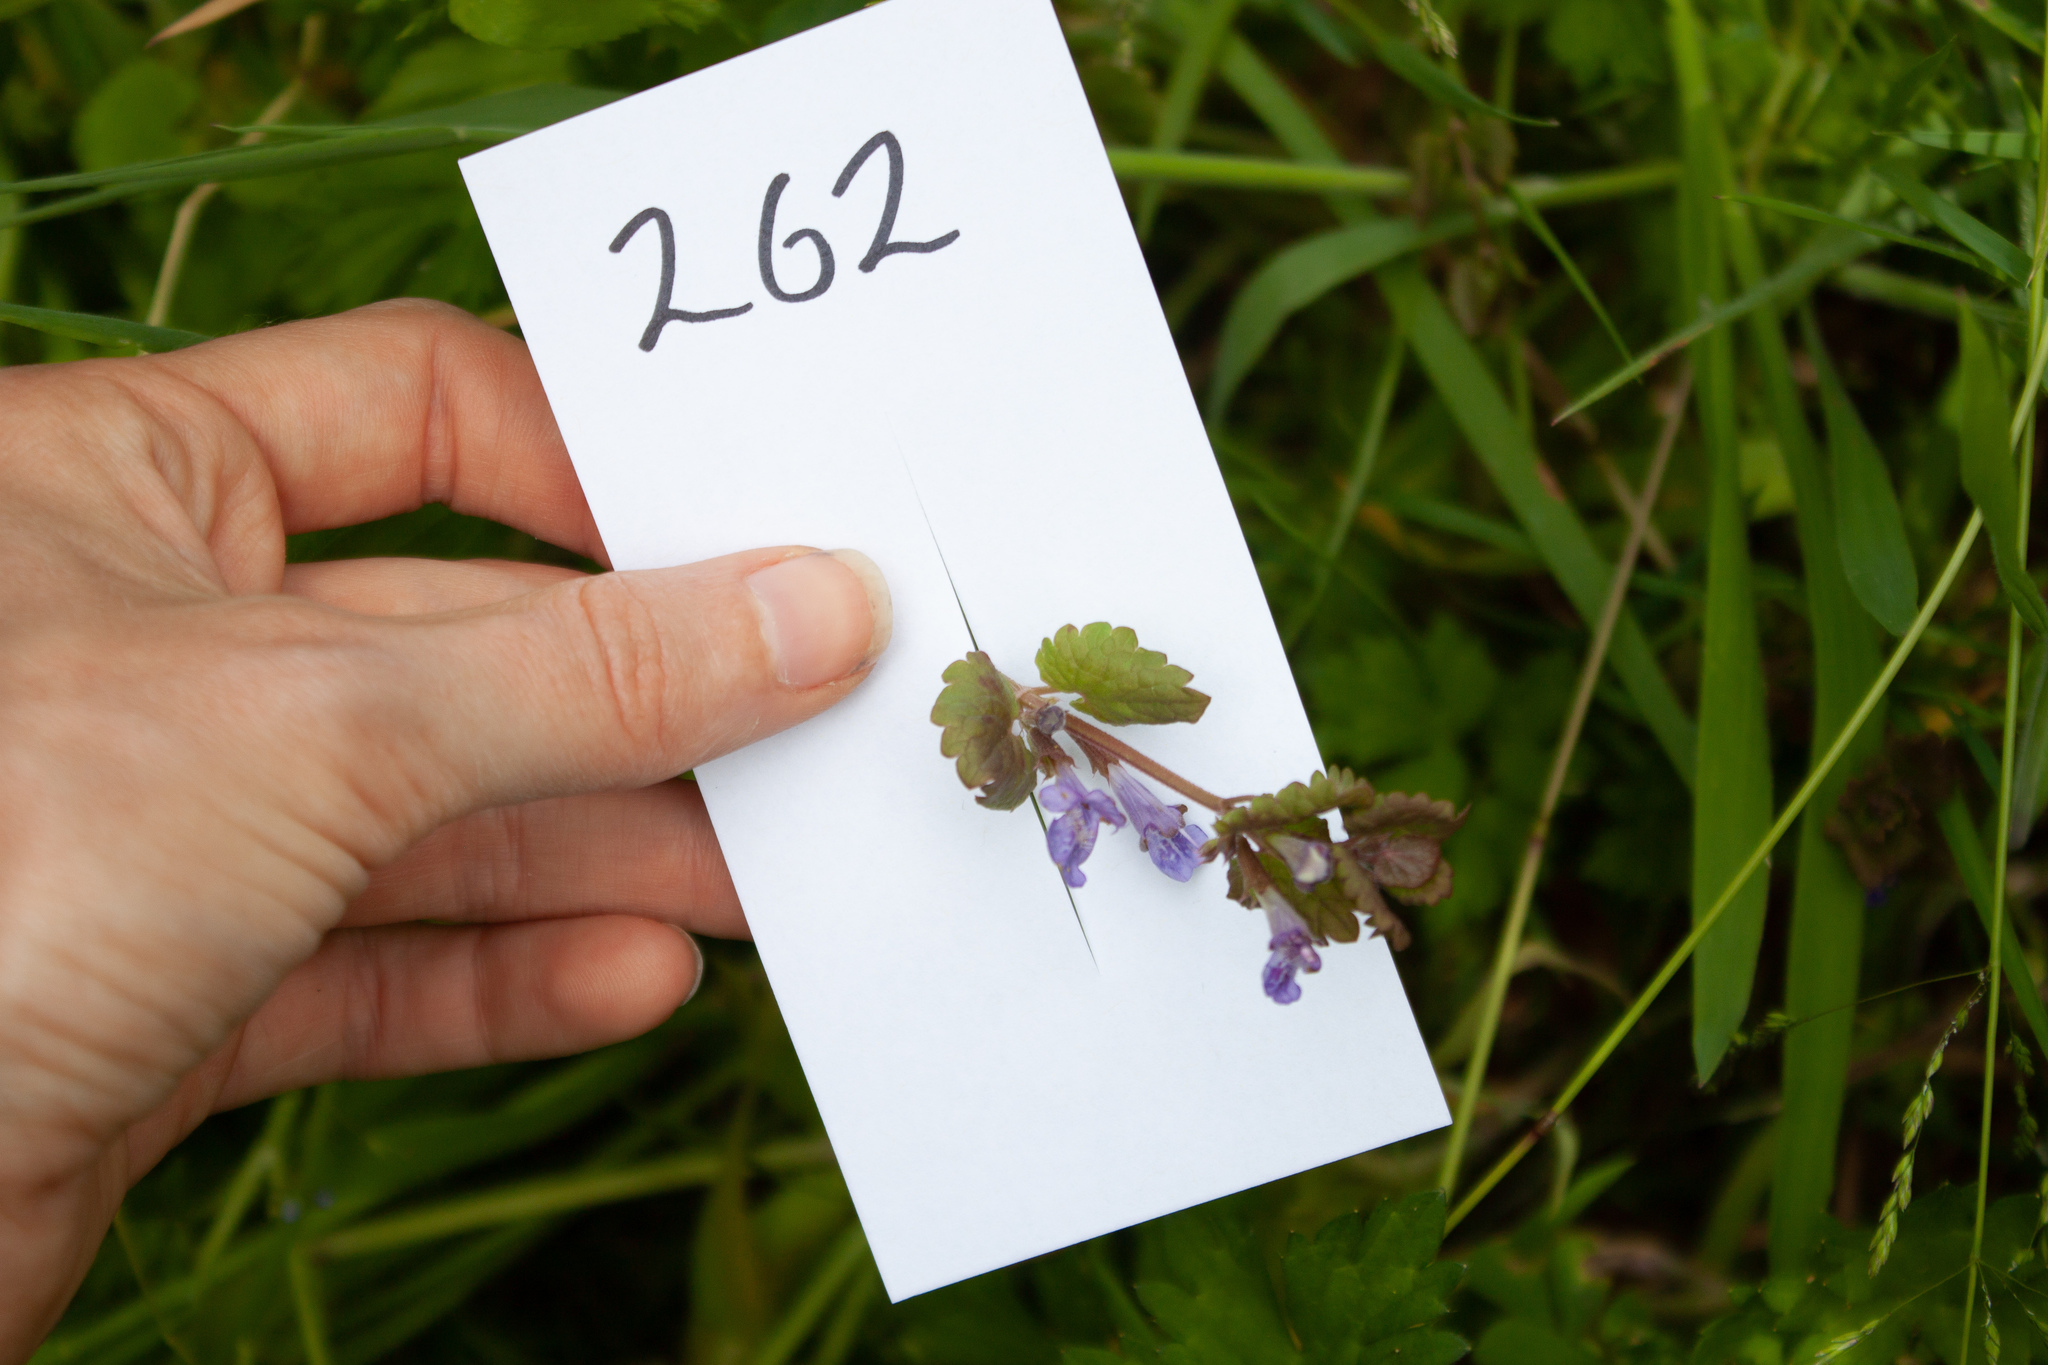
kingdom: Plantae
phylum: Tracheophyta
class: Magnoliopsida
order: Lamiales
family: Lamiaceae
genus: Glechoma
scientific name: Glechoma hederacea
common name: Ground ivy
